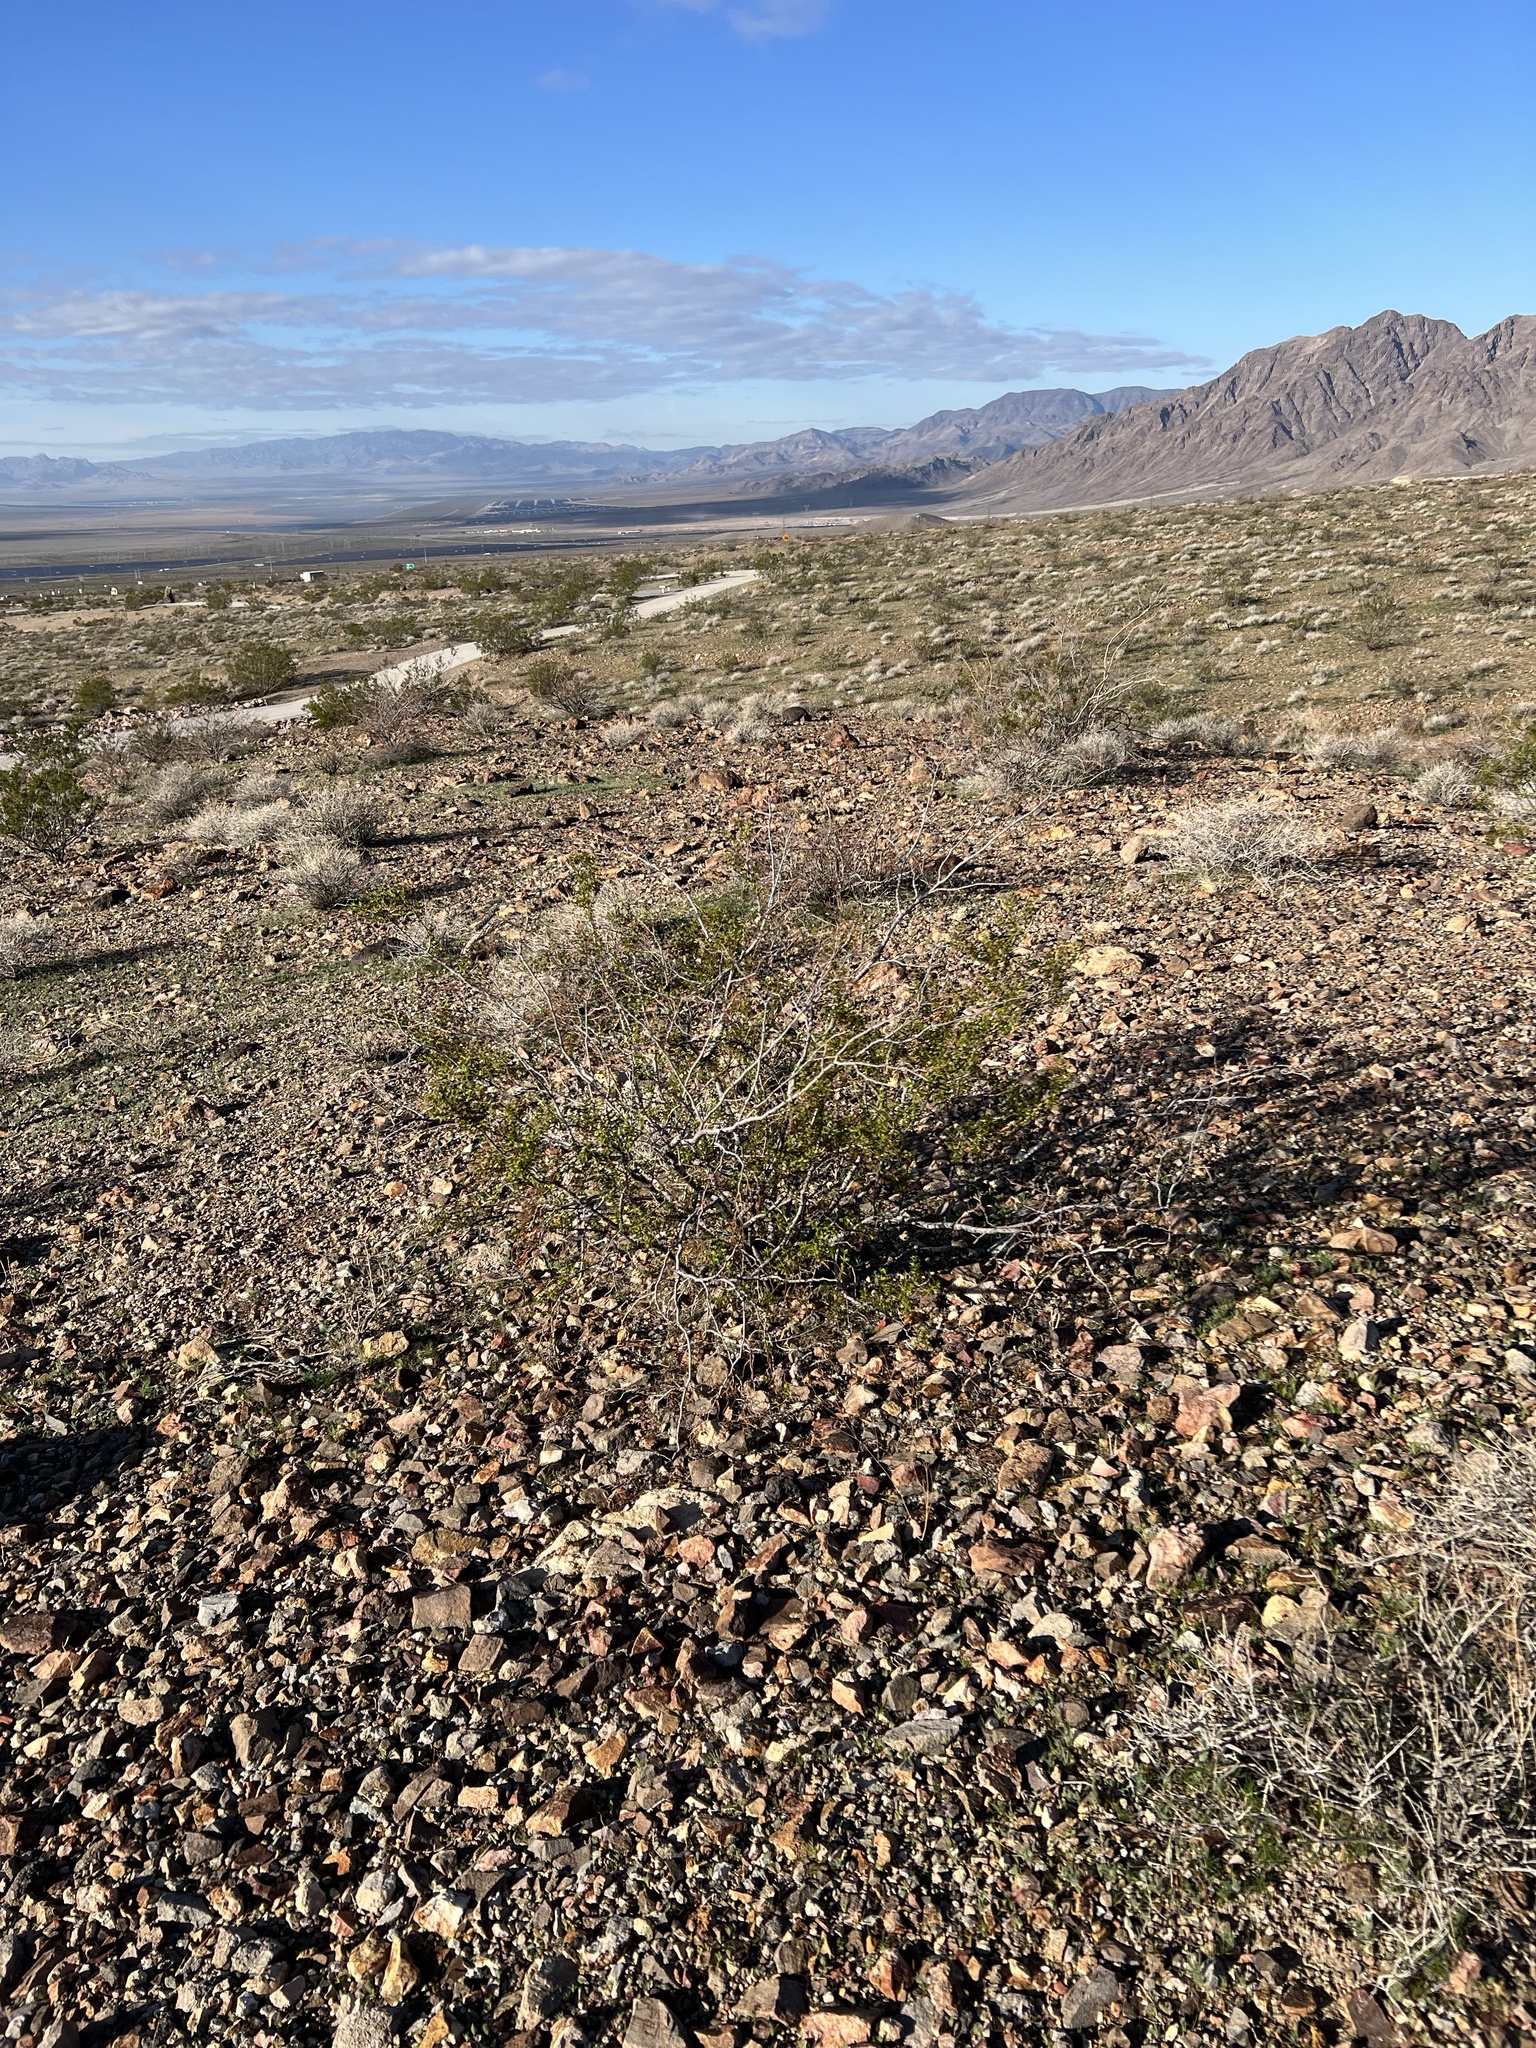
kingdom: Plantae
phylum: Tracheophyta
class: Magnoliopsida
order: Zygophyllales
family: Zygophyllaceae
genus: Larrea
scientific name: Larrea tridentata
